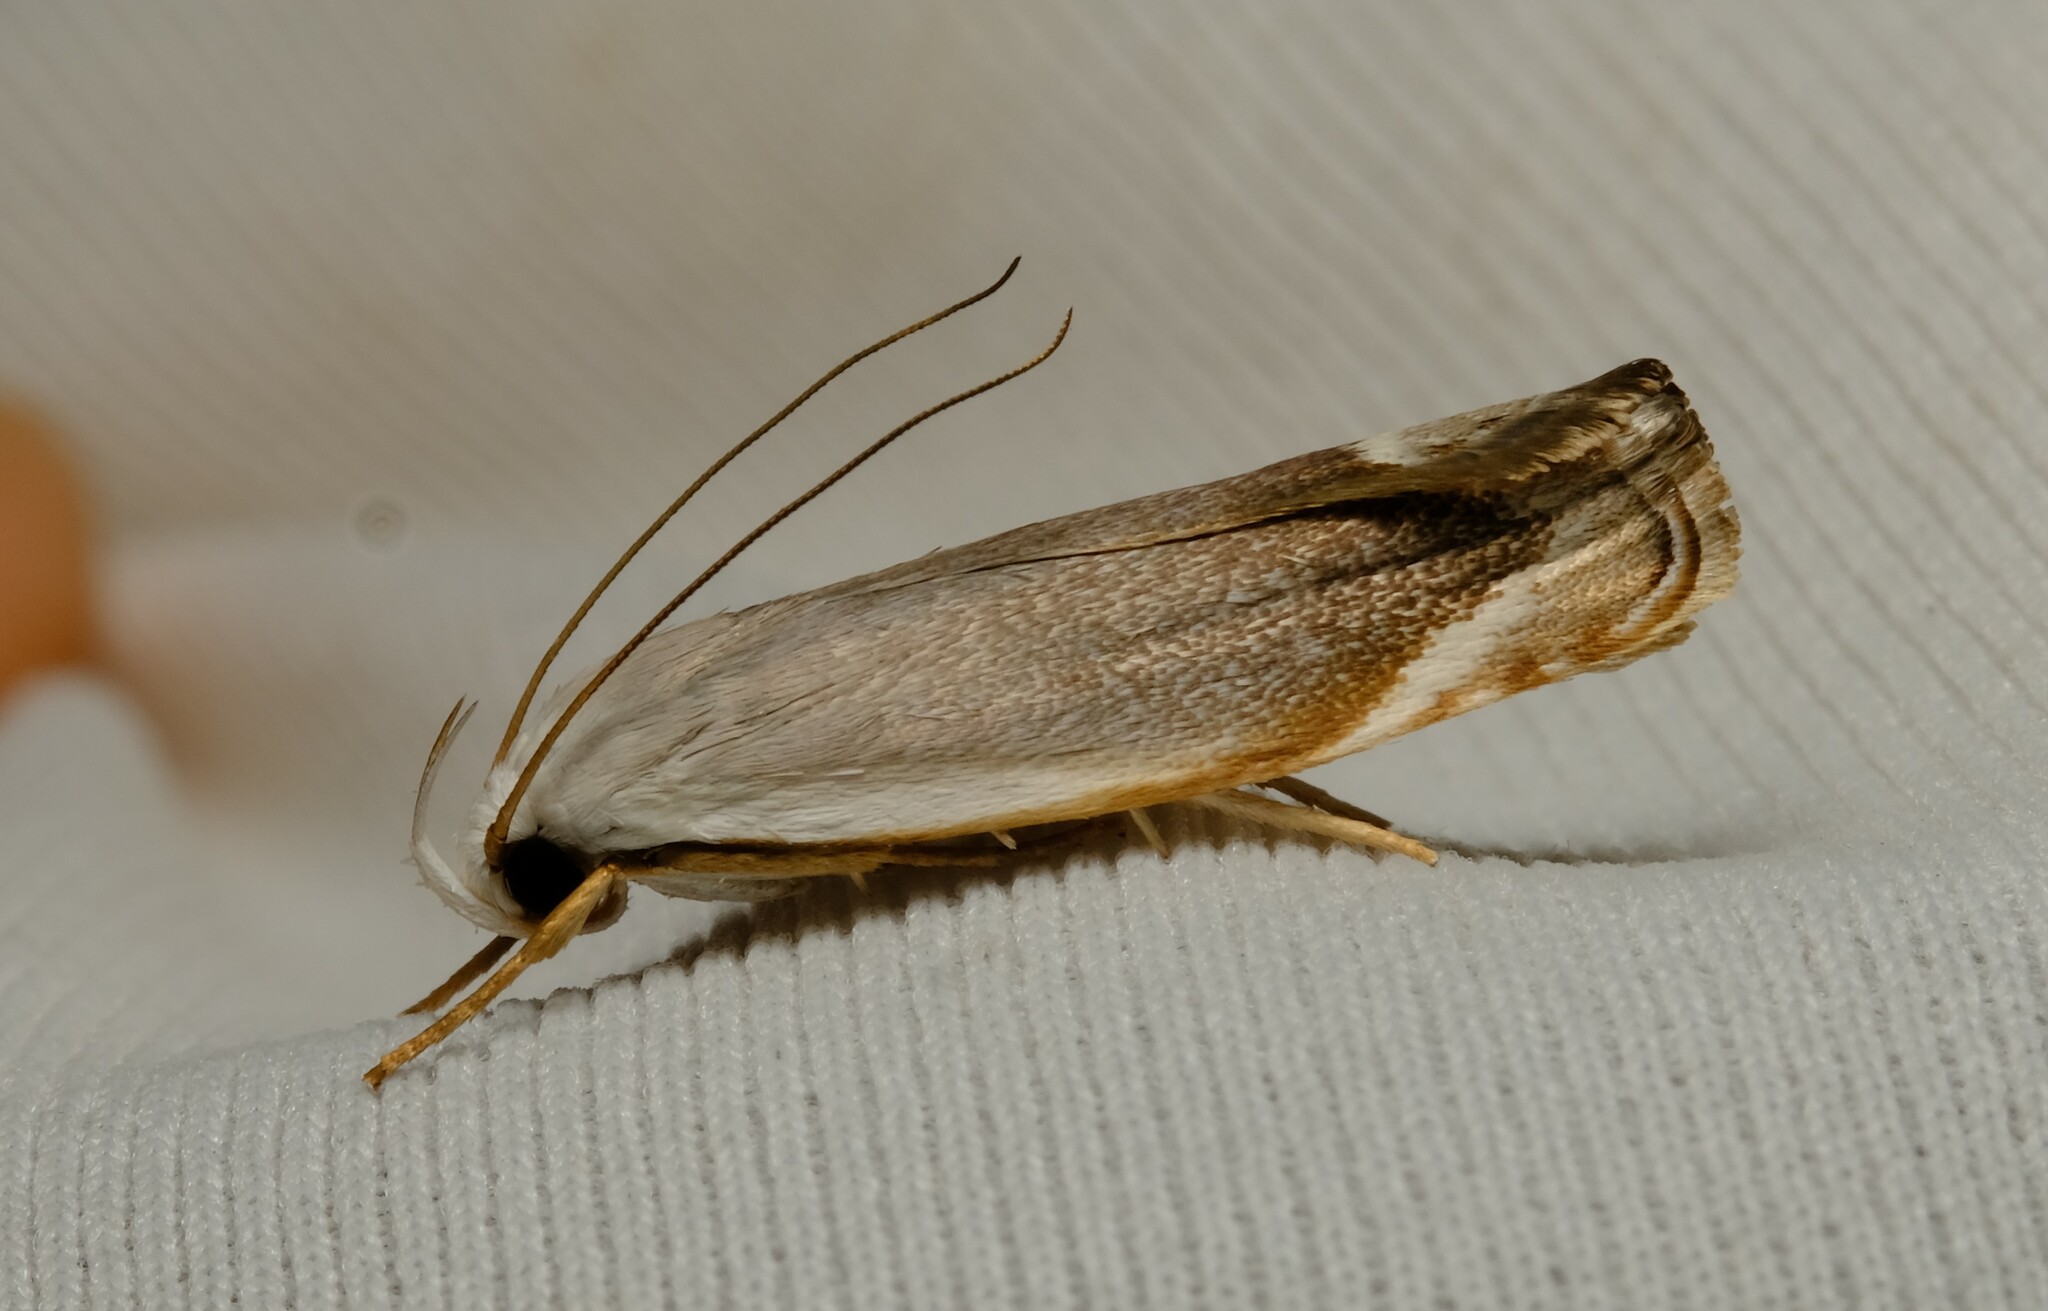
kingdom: Animalia
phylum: Arthropoda
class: Insecta
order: Lepidoptera
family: Xyloryctidae
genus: Plectophila
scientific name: Plectophila discalis
